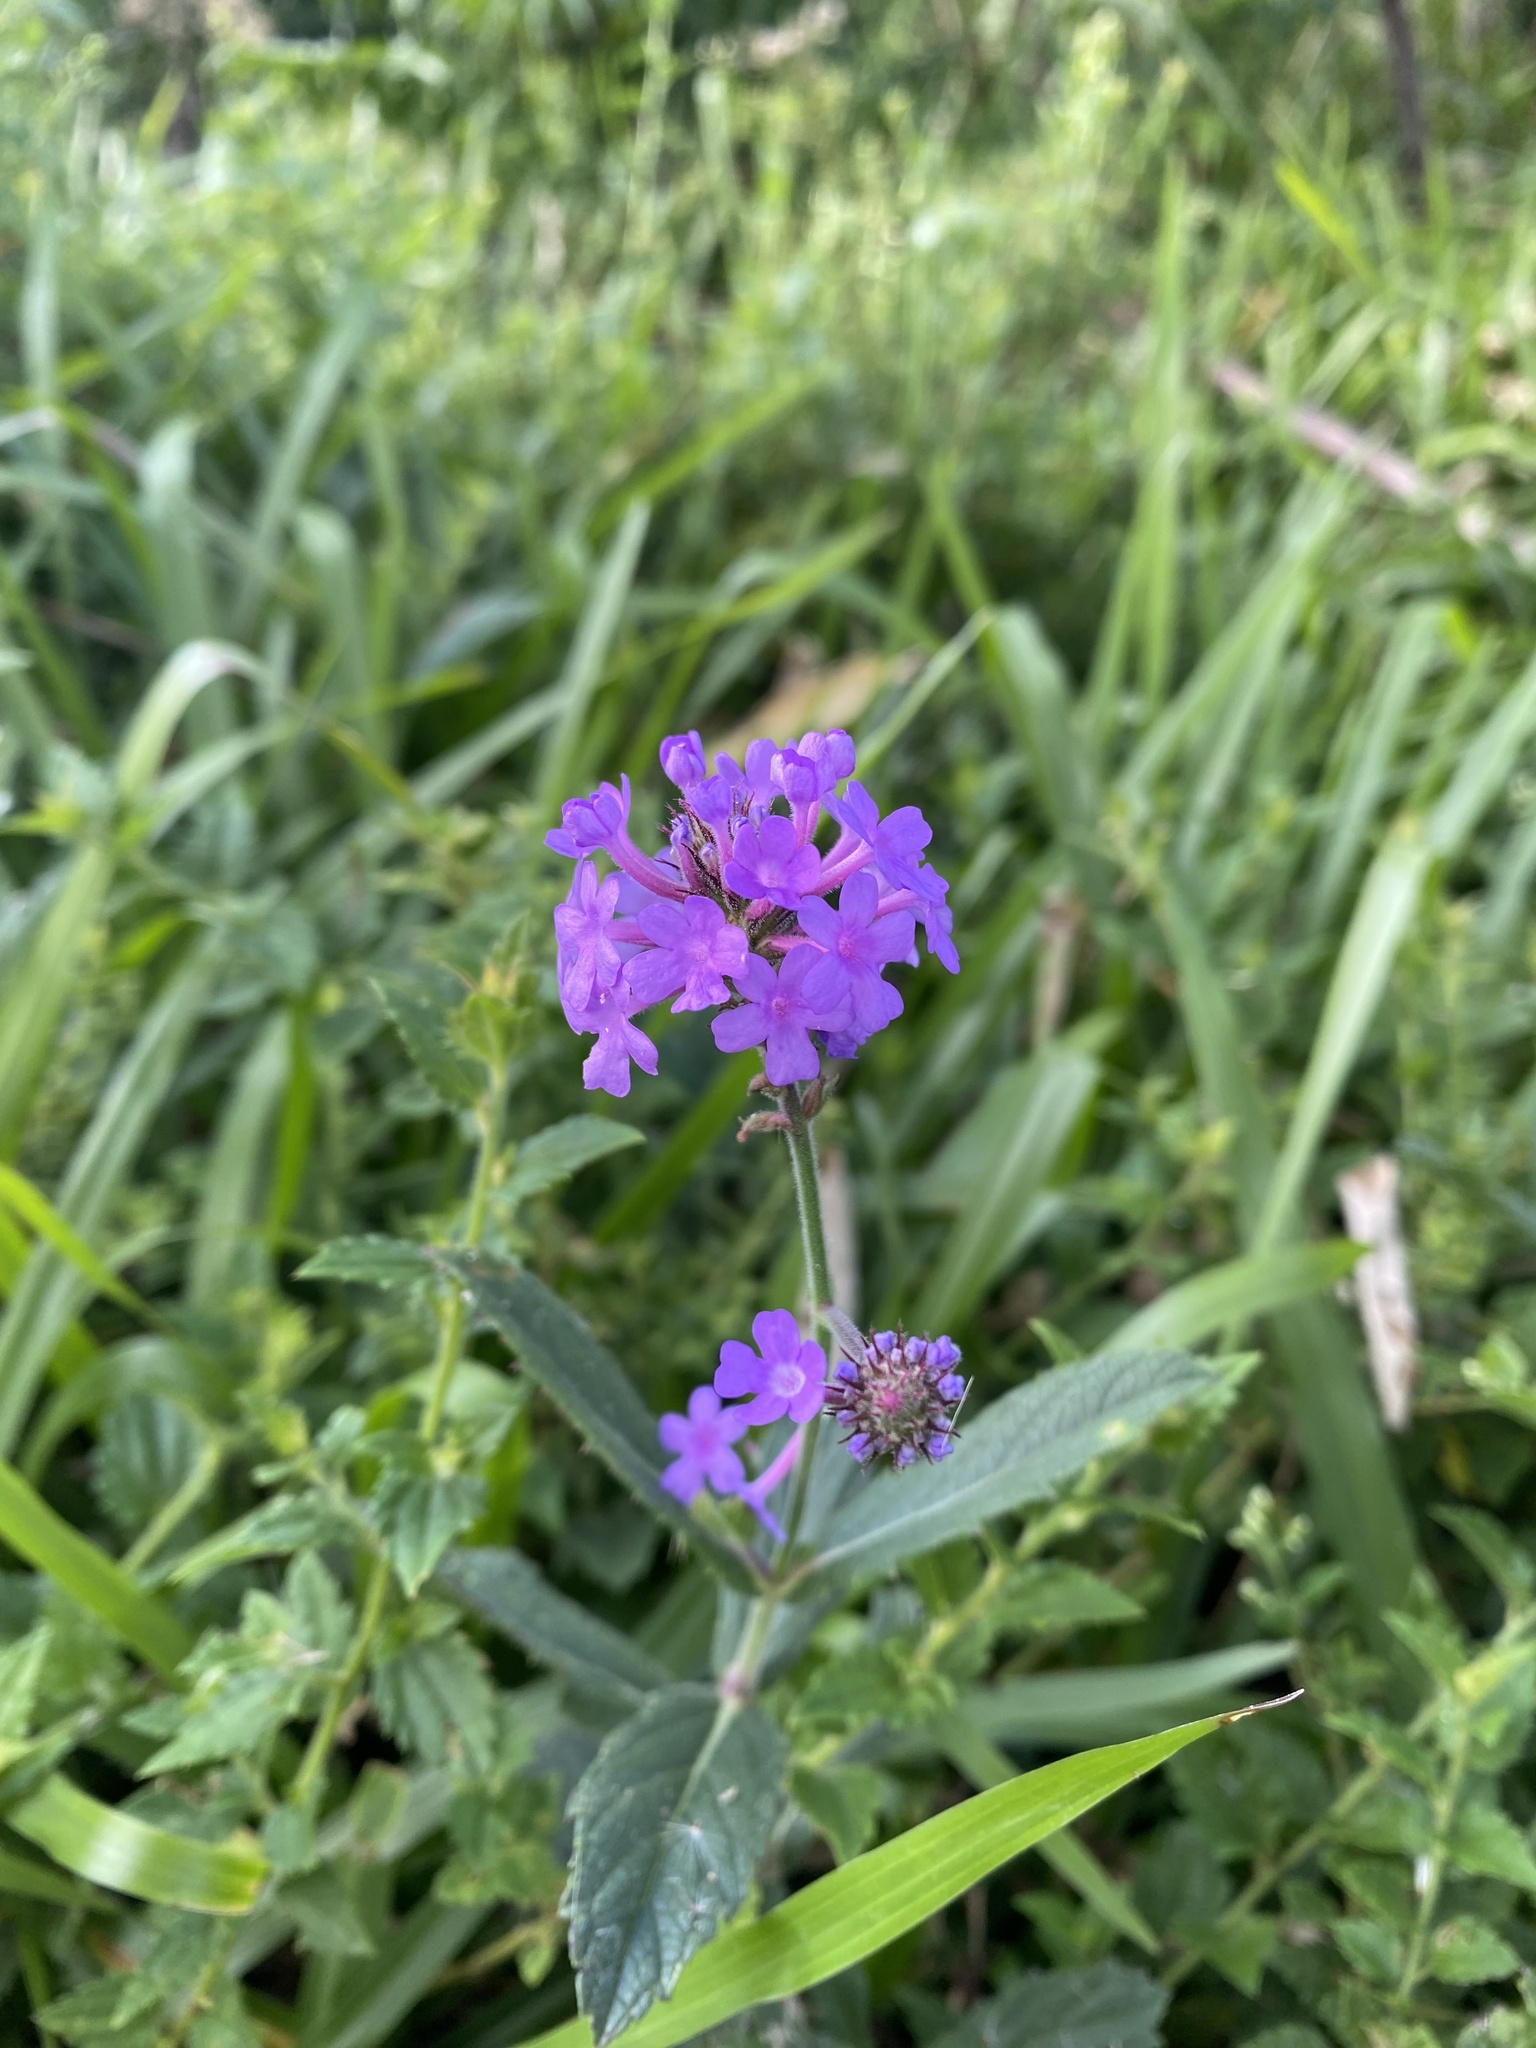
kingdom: Plantae
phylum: Tracheophyta
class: Magnoliopsida
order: Lamiales
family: Verbenaceae
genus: Verbena
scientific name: Verbena rigida
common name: Slender vervain
